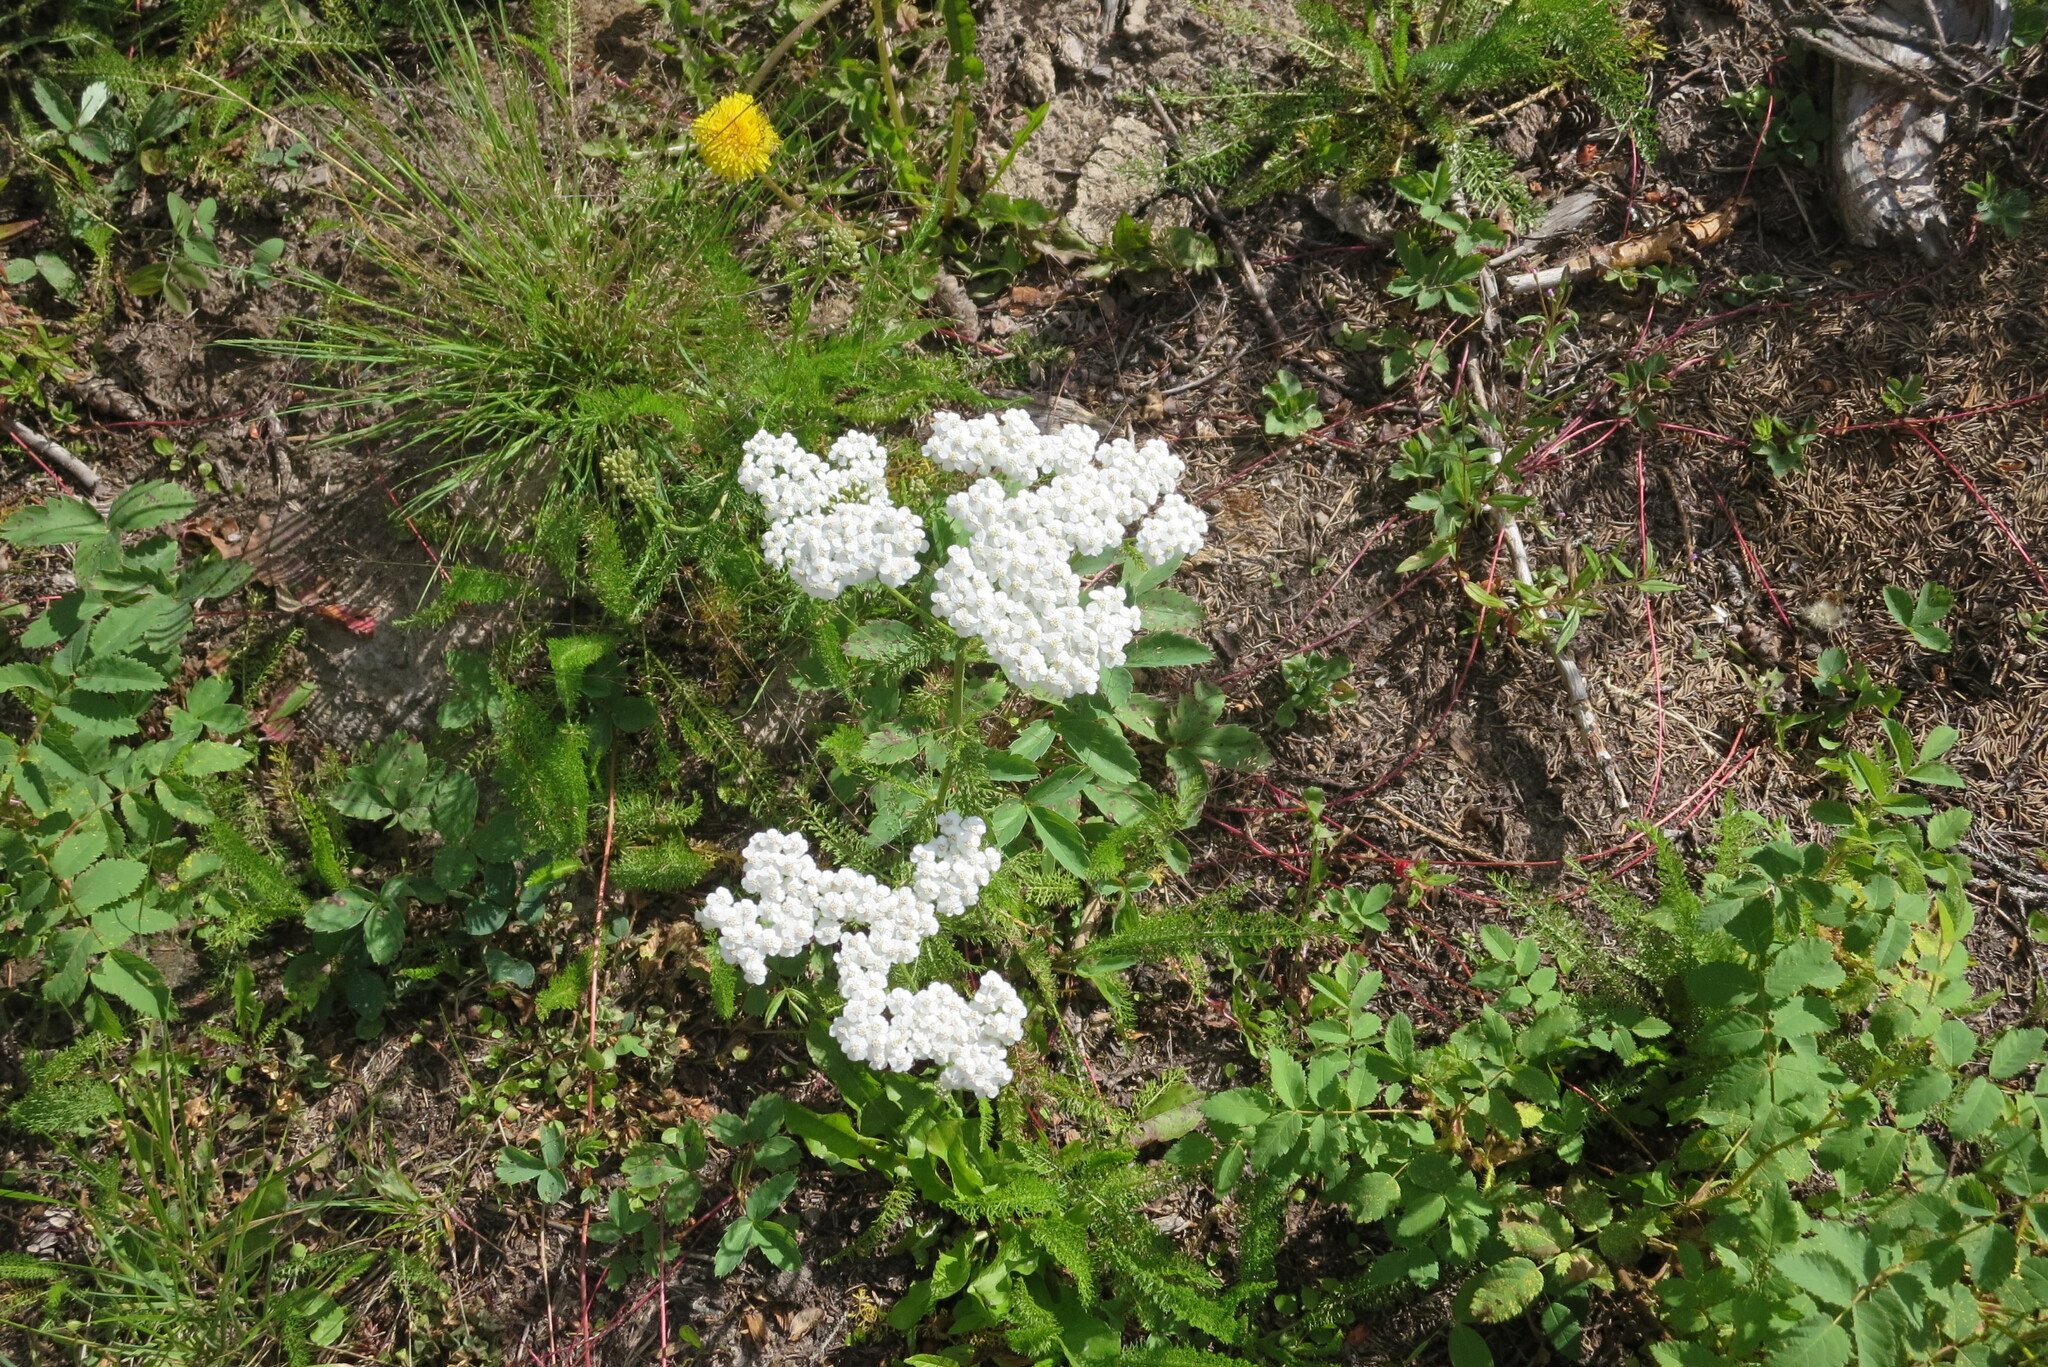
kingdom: Plantae
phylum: Tracheophyta
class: Magnoliopsida
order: Asterales
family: Asteraceae
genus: Achillea
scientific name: Achillea millefolium
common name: Yarrow
